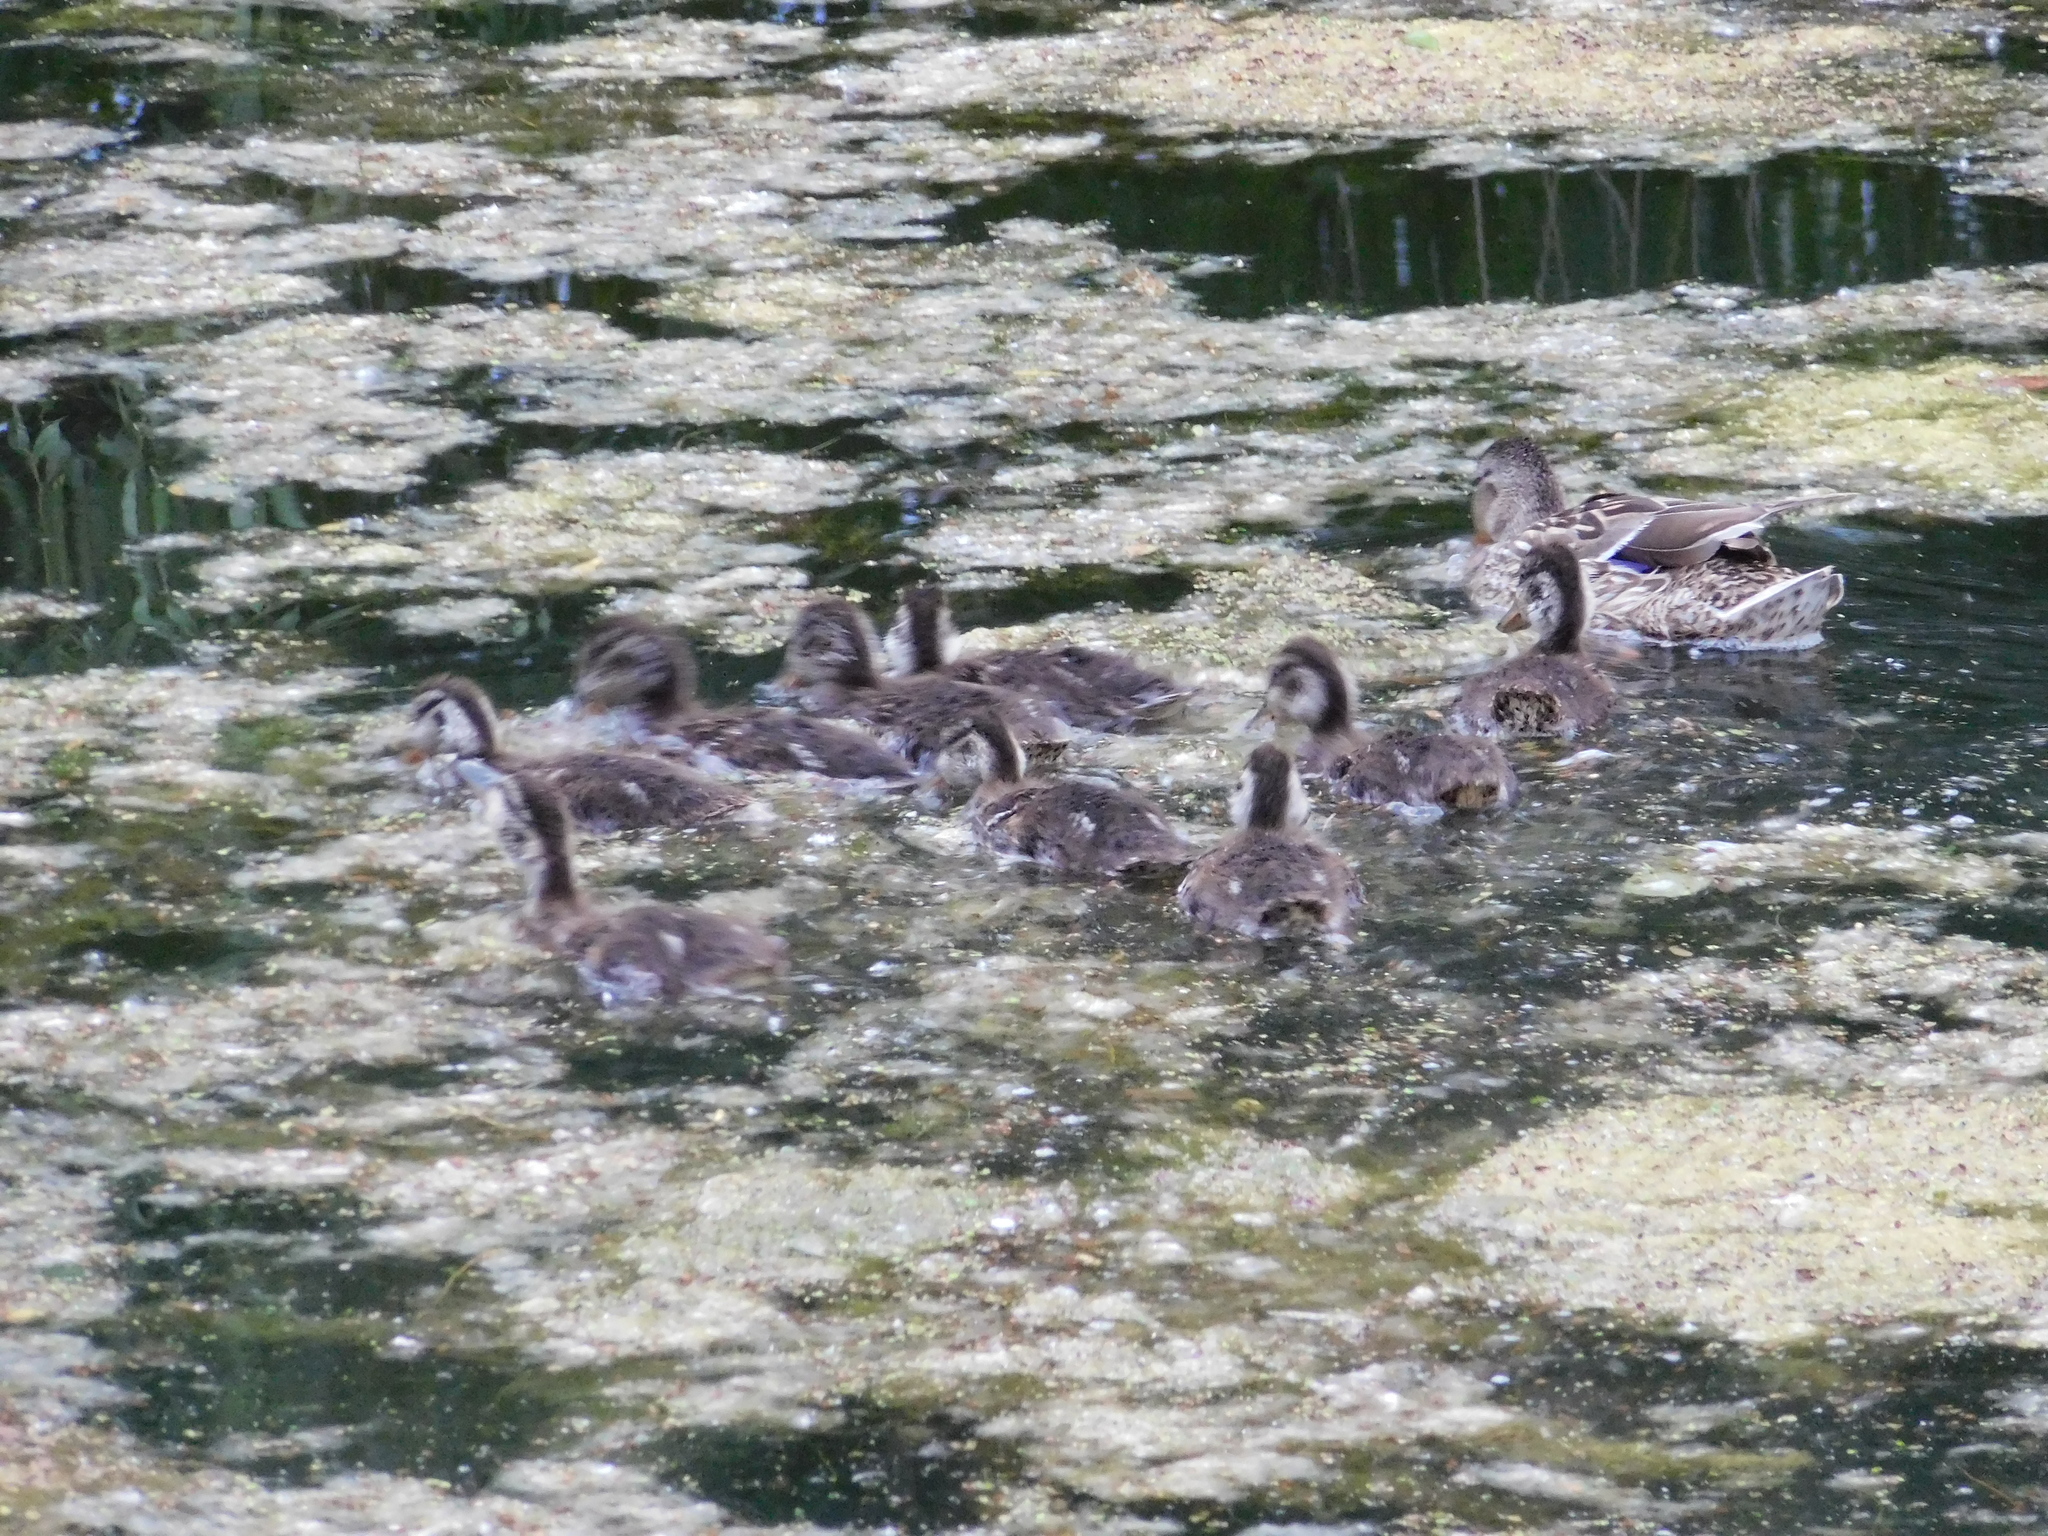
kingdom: Animalia
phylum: Chordata
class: Aves
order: Anseriformes
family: Anatidae
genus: Anas
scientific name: Anas platyrhynchos
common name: Mallard
